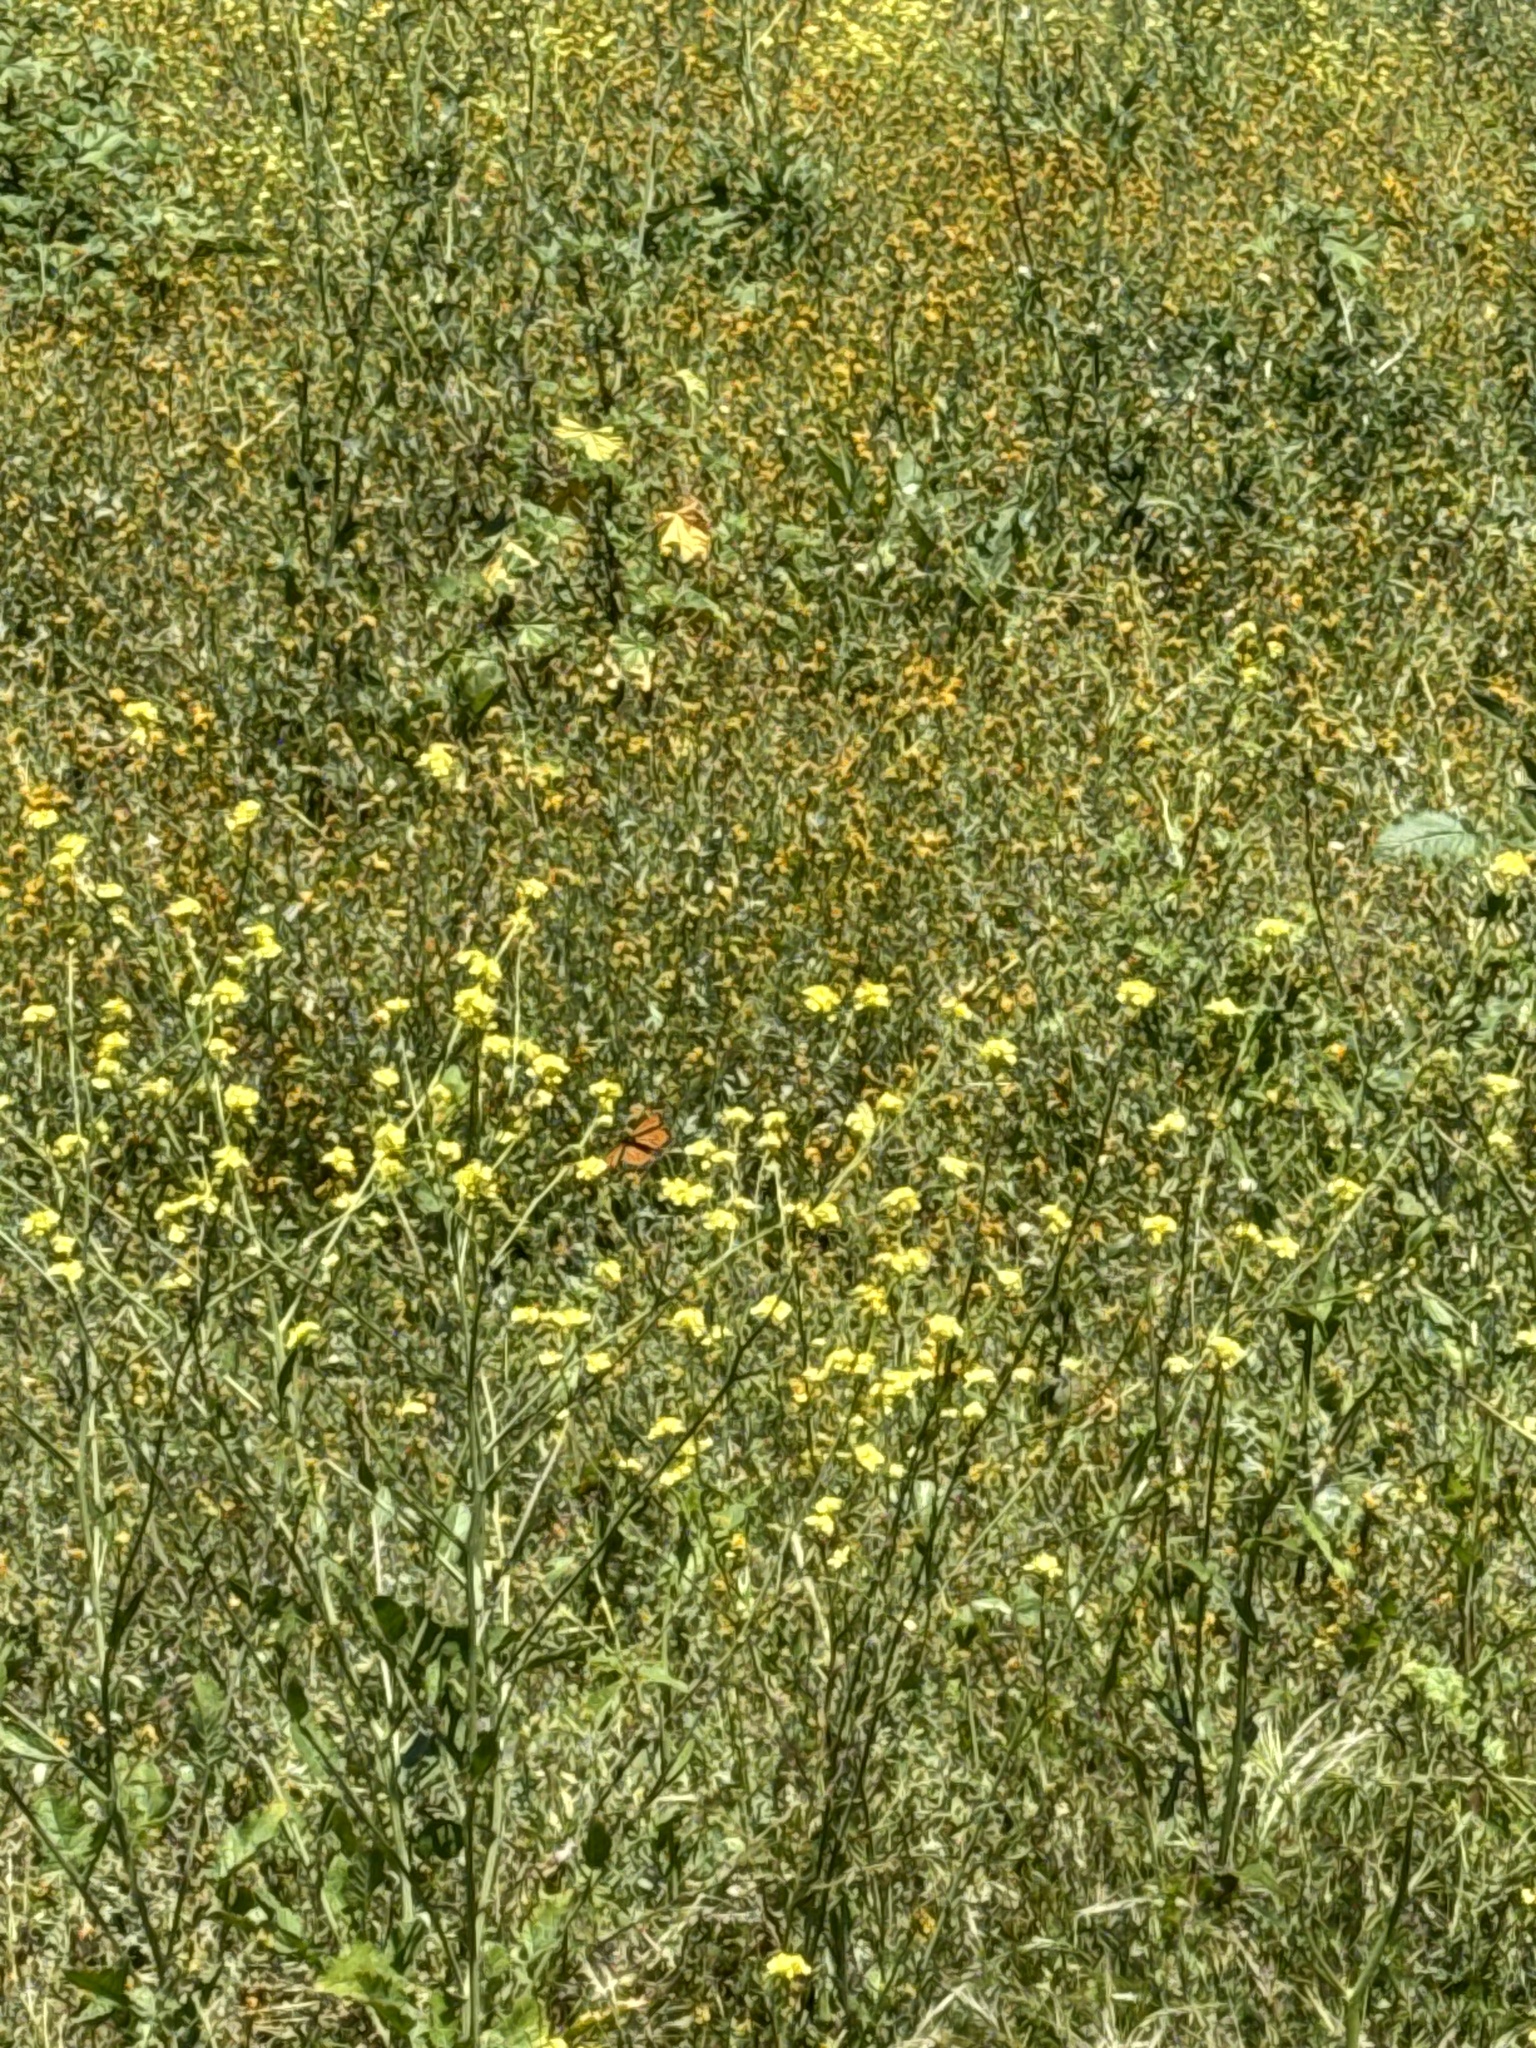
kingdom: Animalia
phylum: Arthropoda
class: Insecta
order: Lepidoptera
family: Nymphalidae
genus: Danaus
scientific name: Danaus plexippus
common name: Monarch
